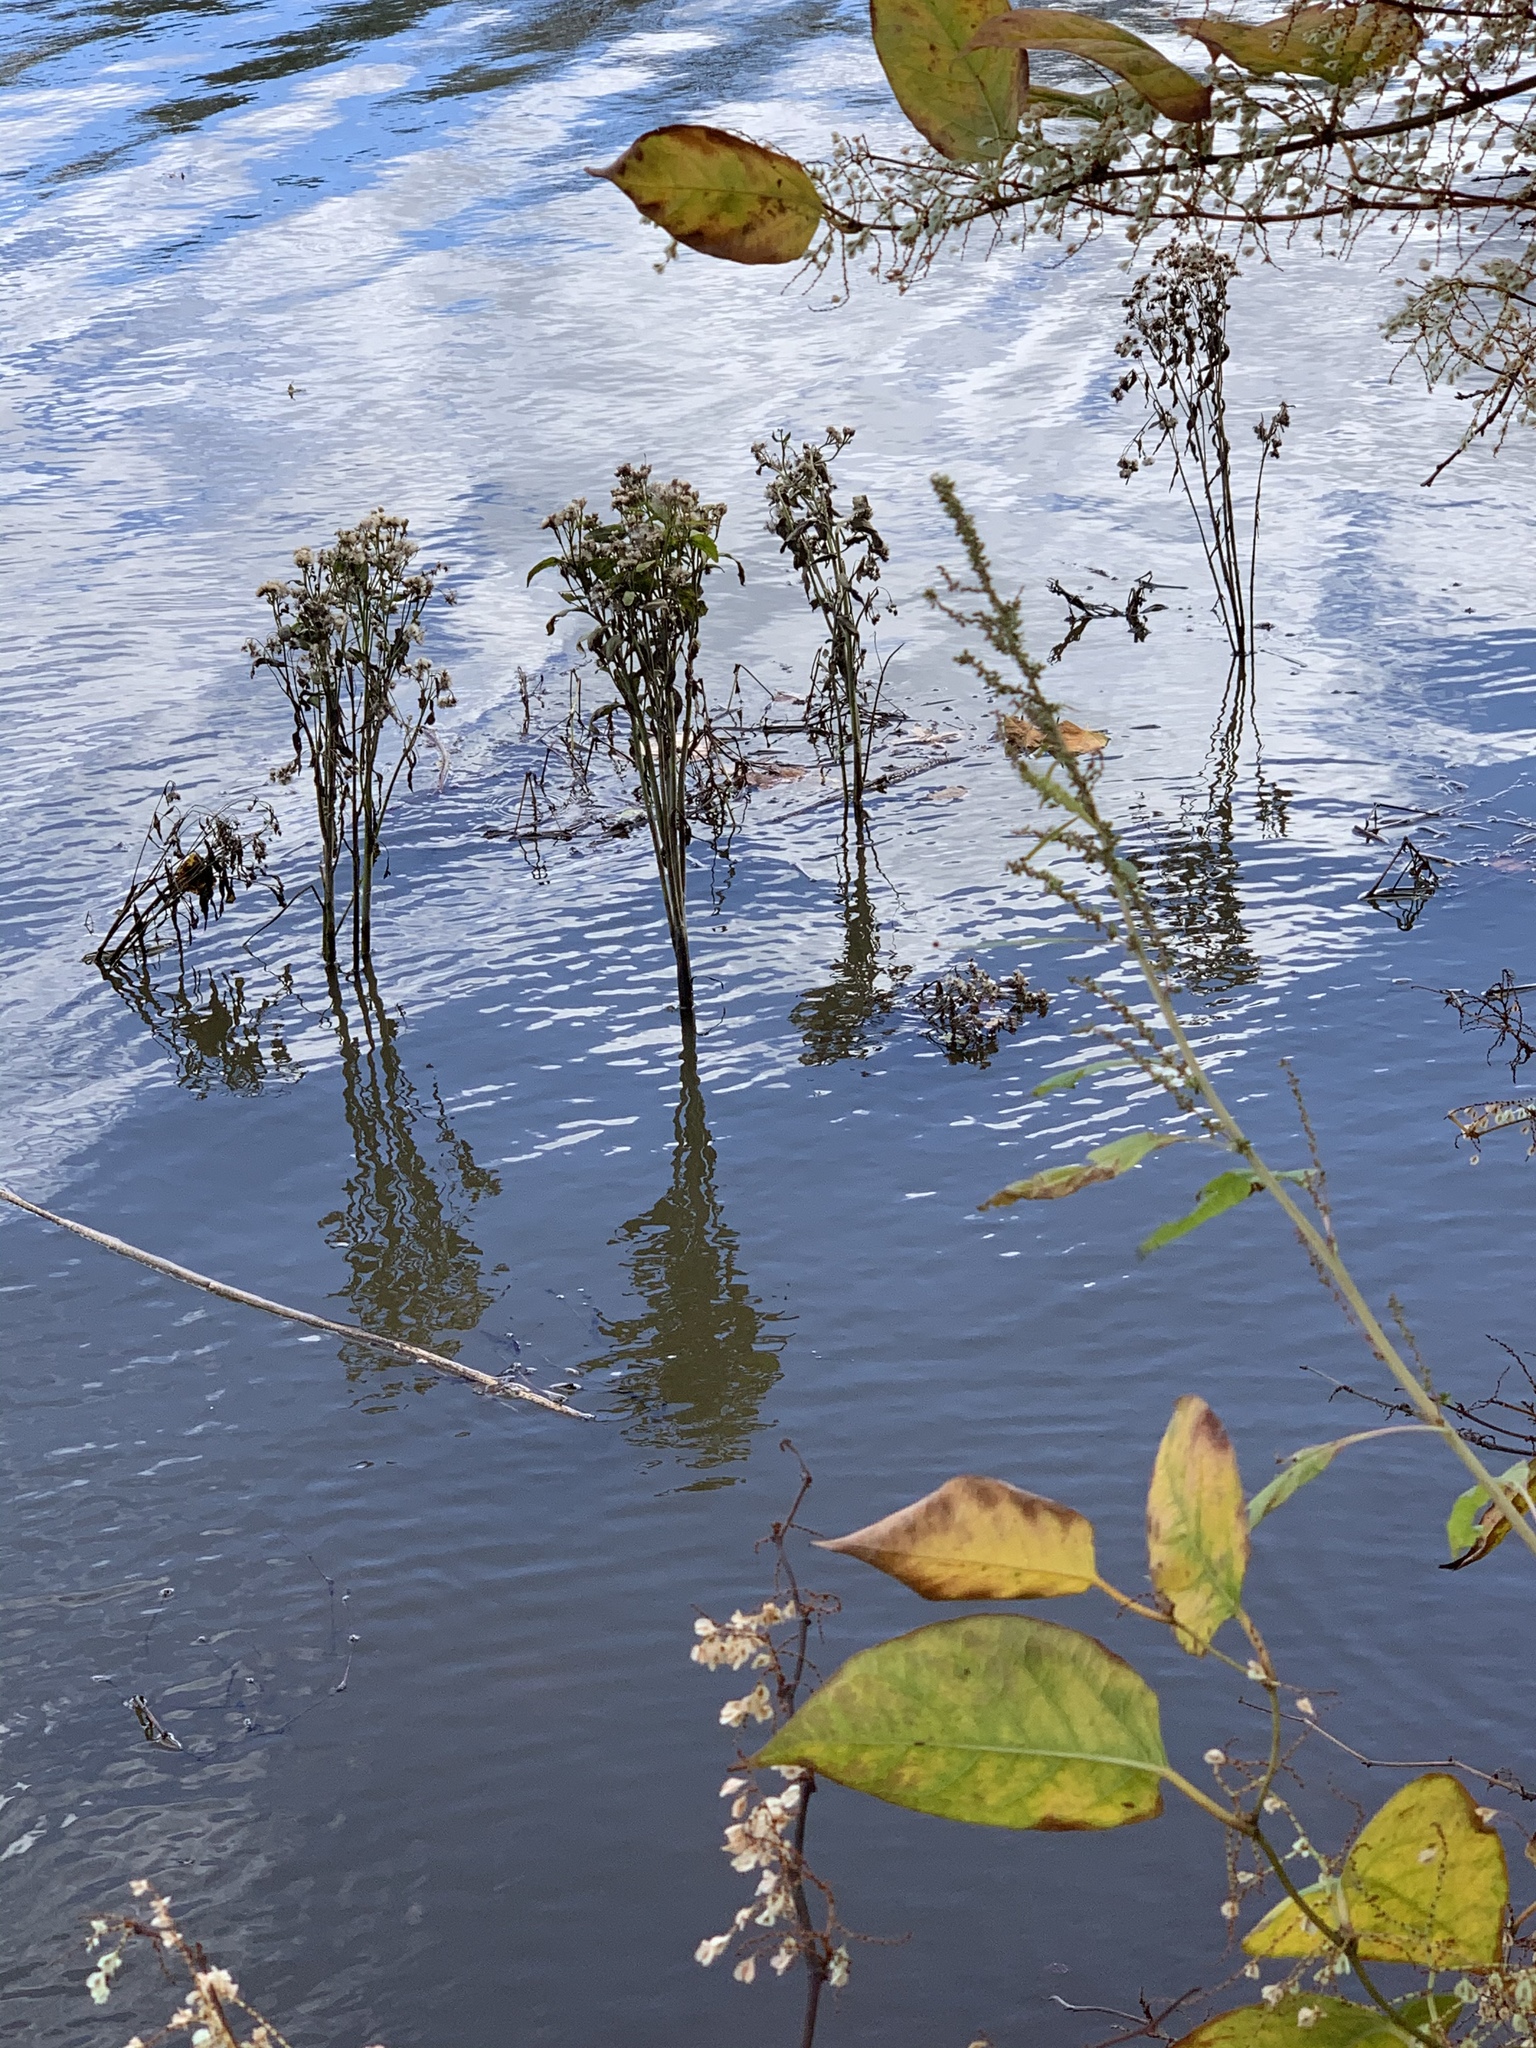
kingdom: Plantae
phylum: Tracheophyta
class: Magnoliopsida
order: Asterales
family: Asteraceae
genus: Pluchea
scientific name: Pluchea odorata
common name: Saltmarsh fleabane
